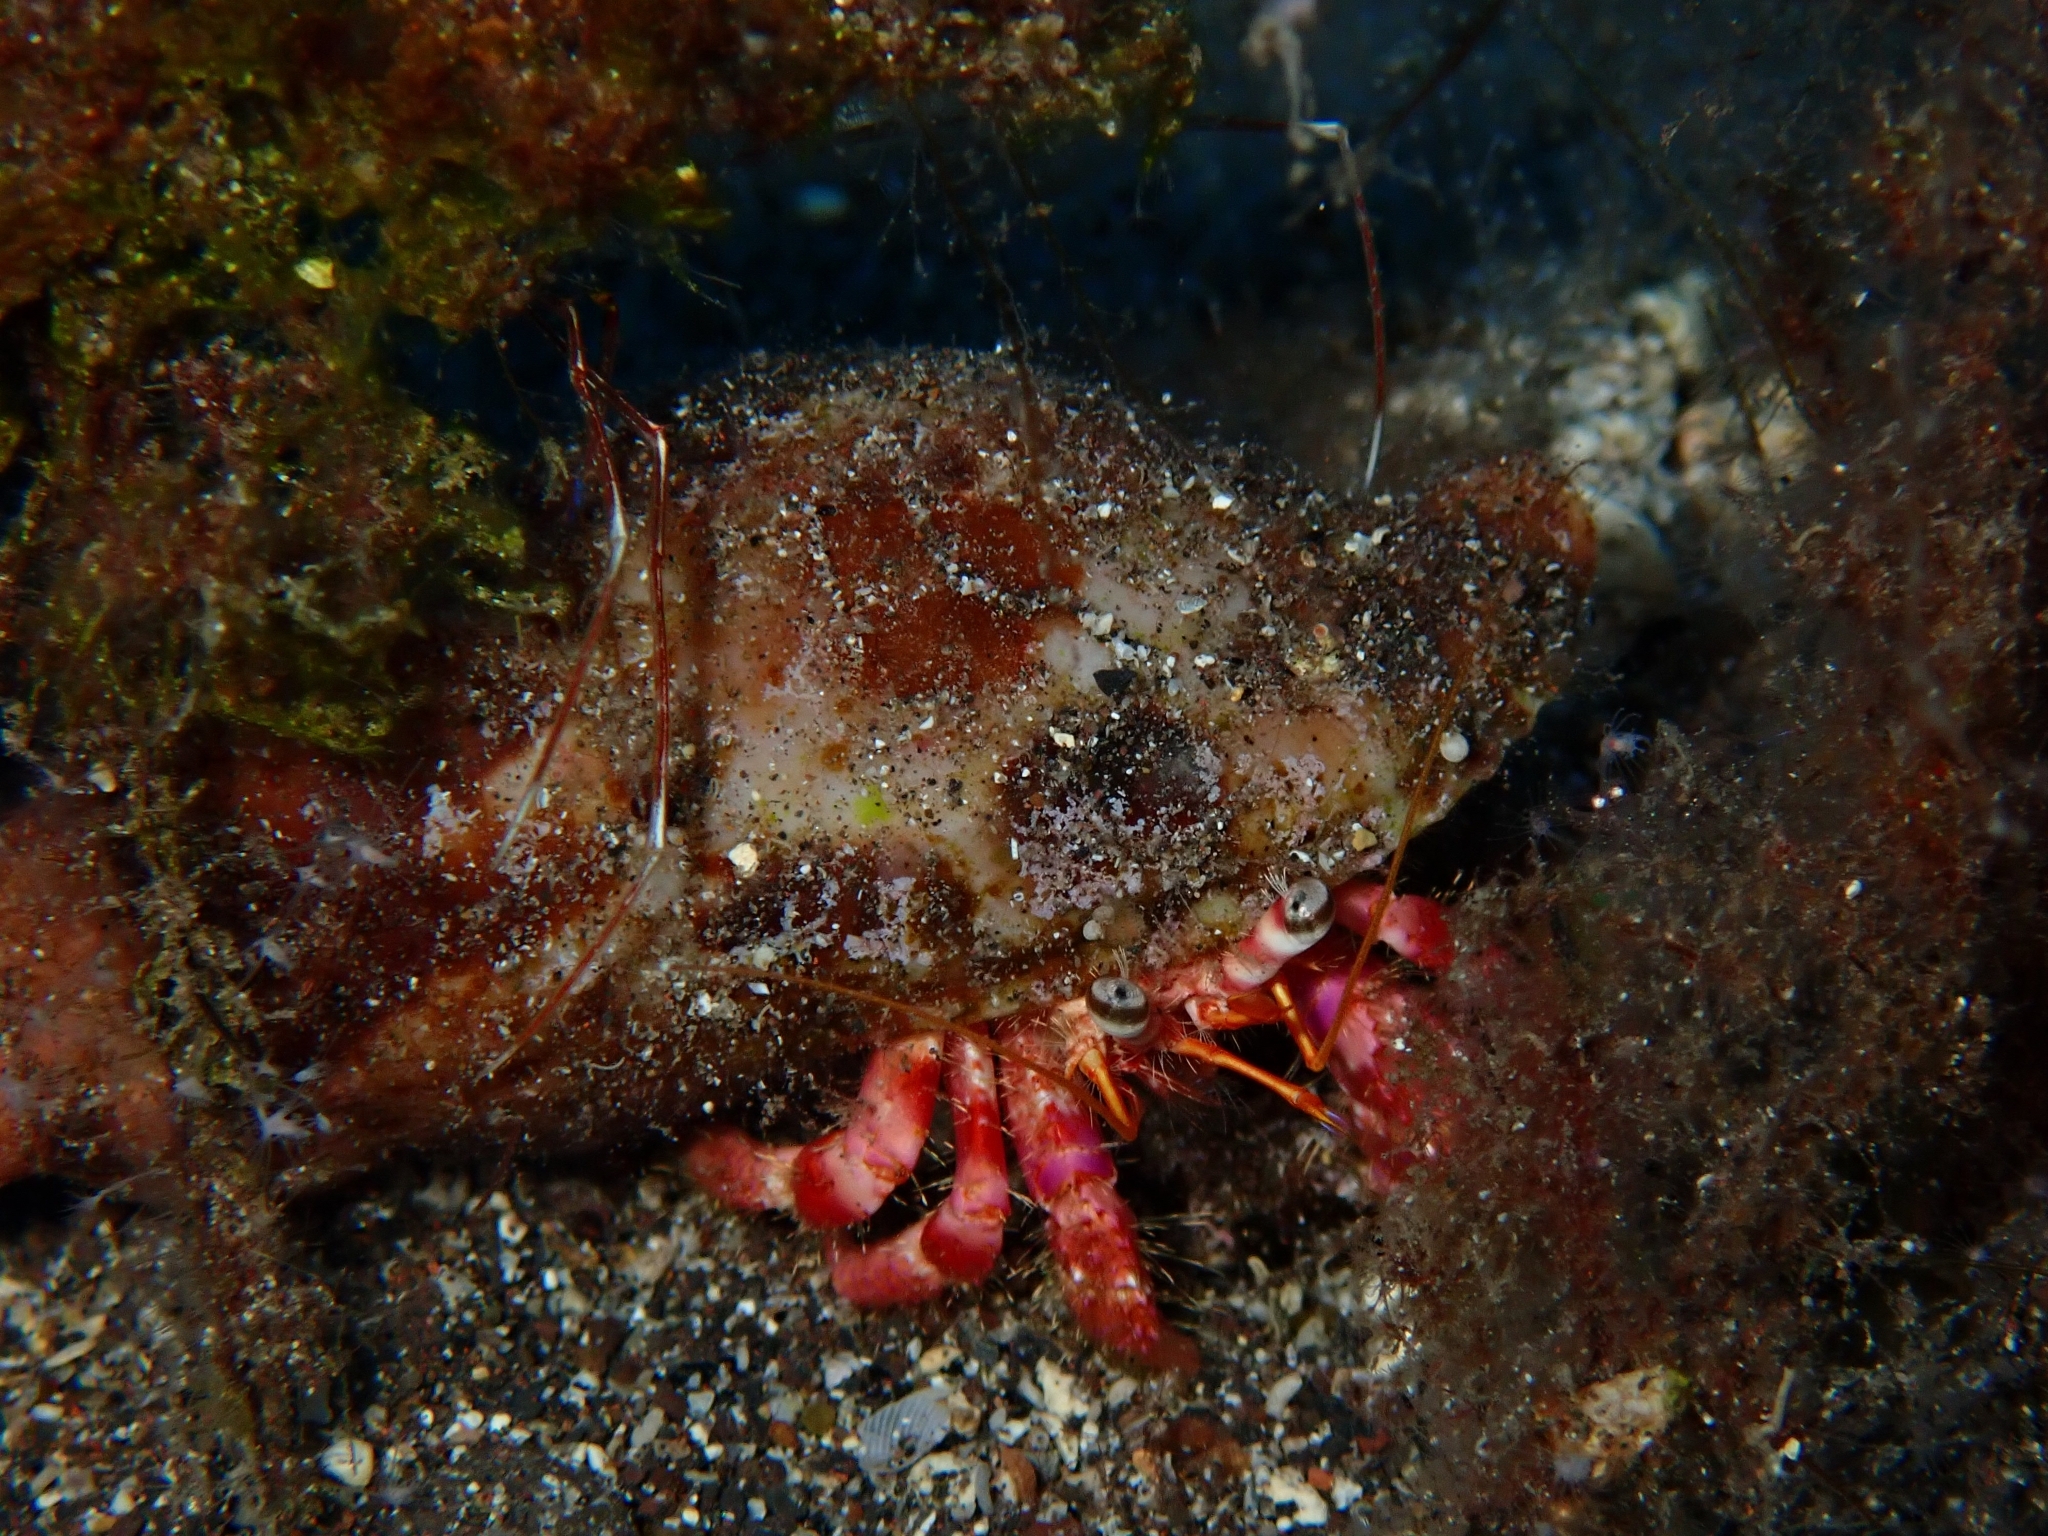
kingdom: Animalia
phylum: Arthropoda
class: Malacostraca
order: Decapoda
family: Diogenidae
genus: Dardanus
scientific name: Dardanus calidus
